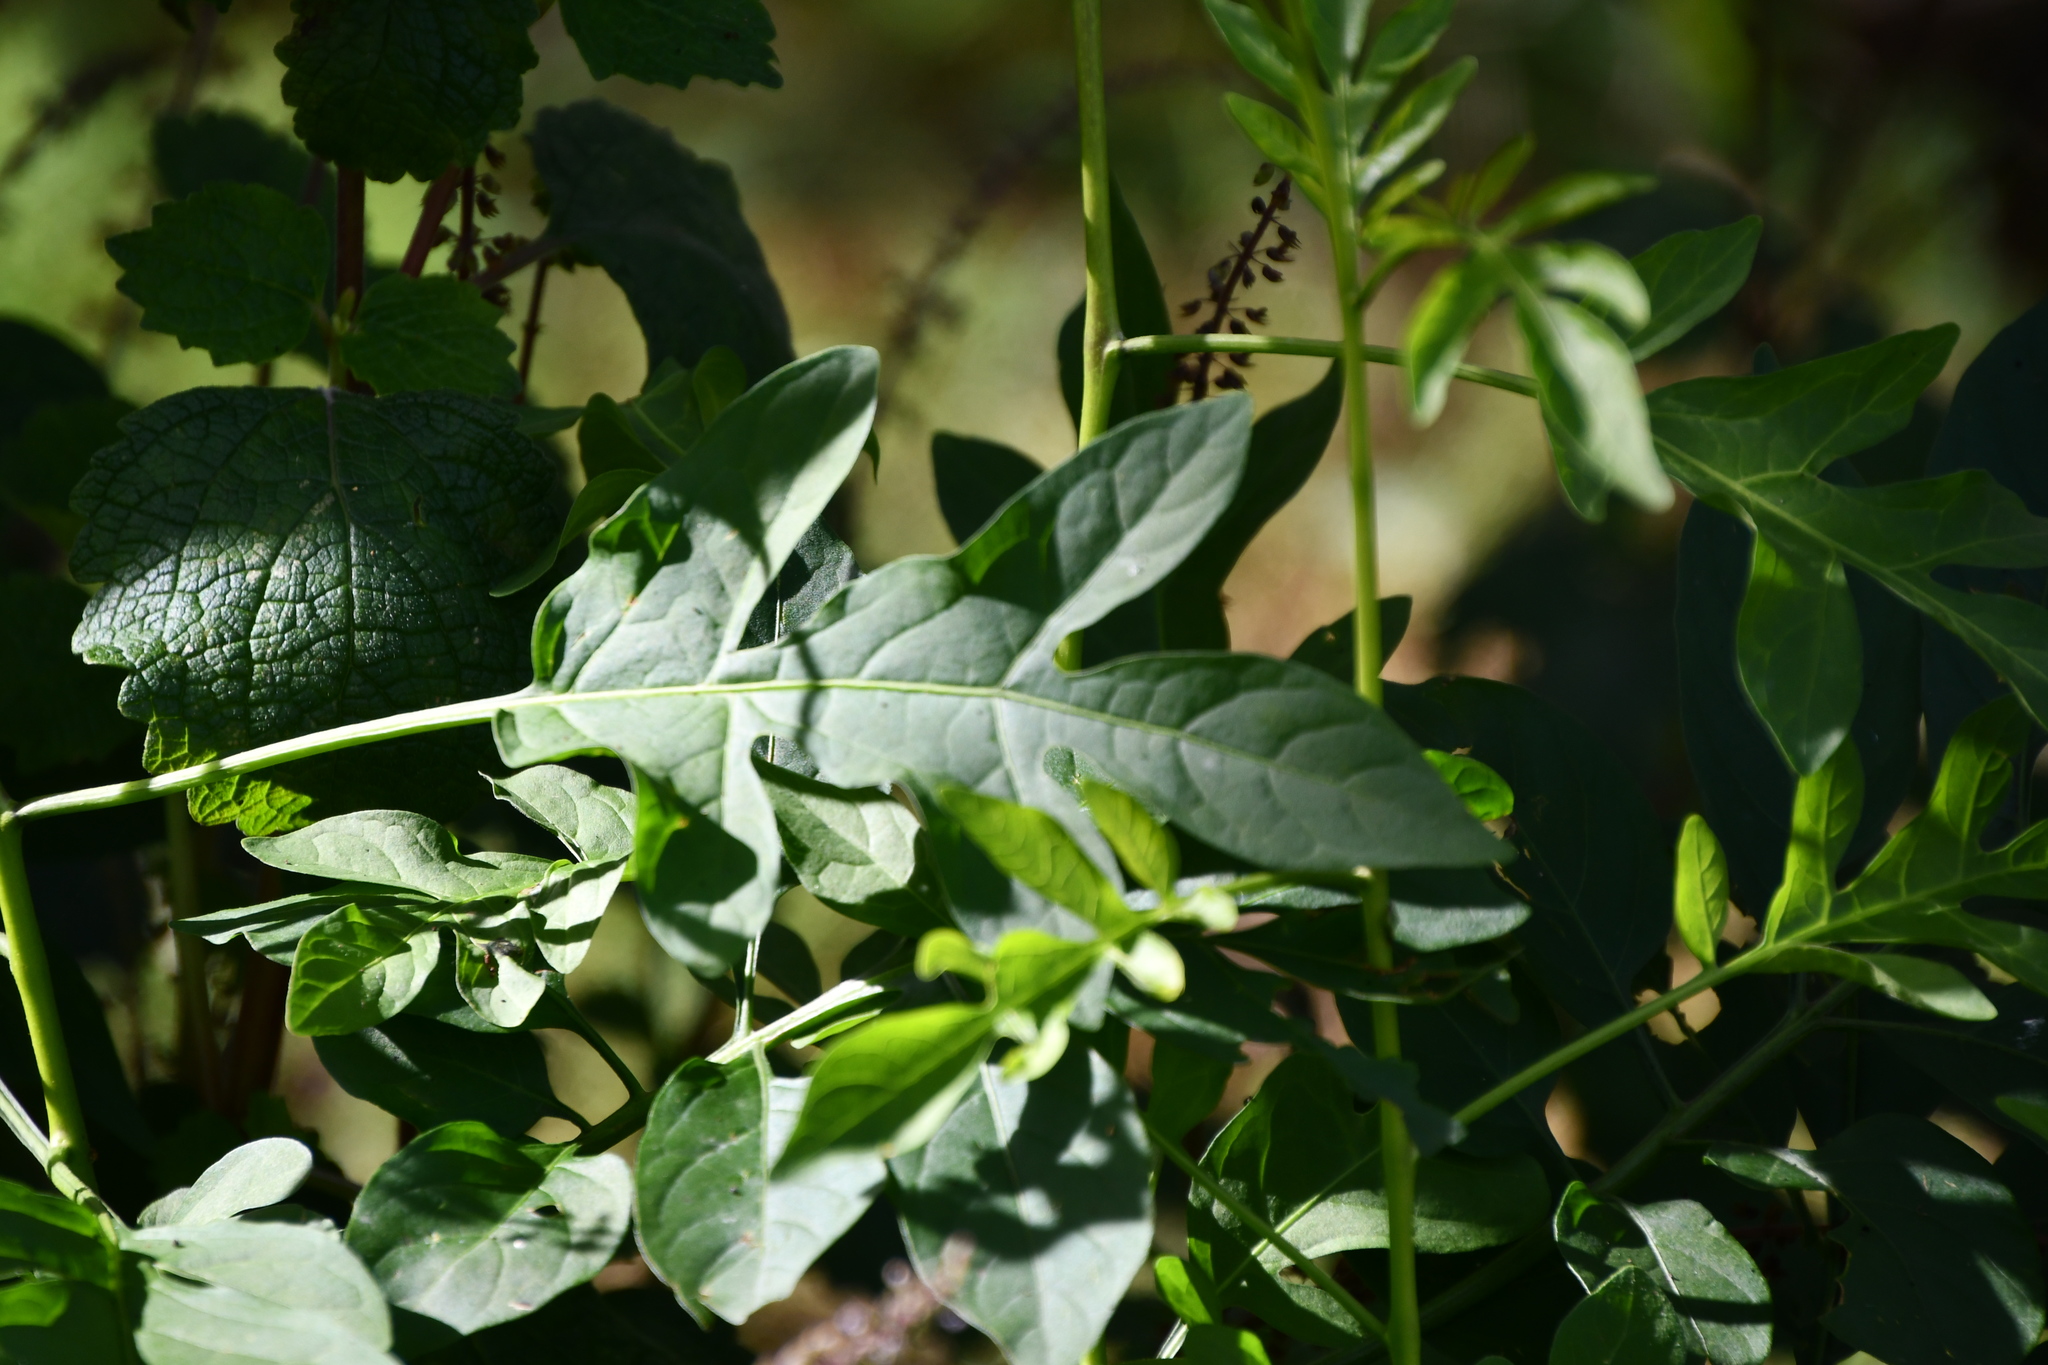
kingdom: Plantae
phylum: Tracheophyta
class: Magnoliopsida
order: Solanales
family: Solanaceae
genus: Solanum
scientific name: Solanum seaforthianum
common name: Brazilian nightshade
